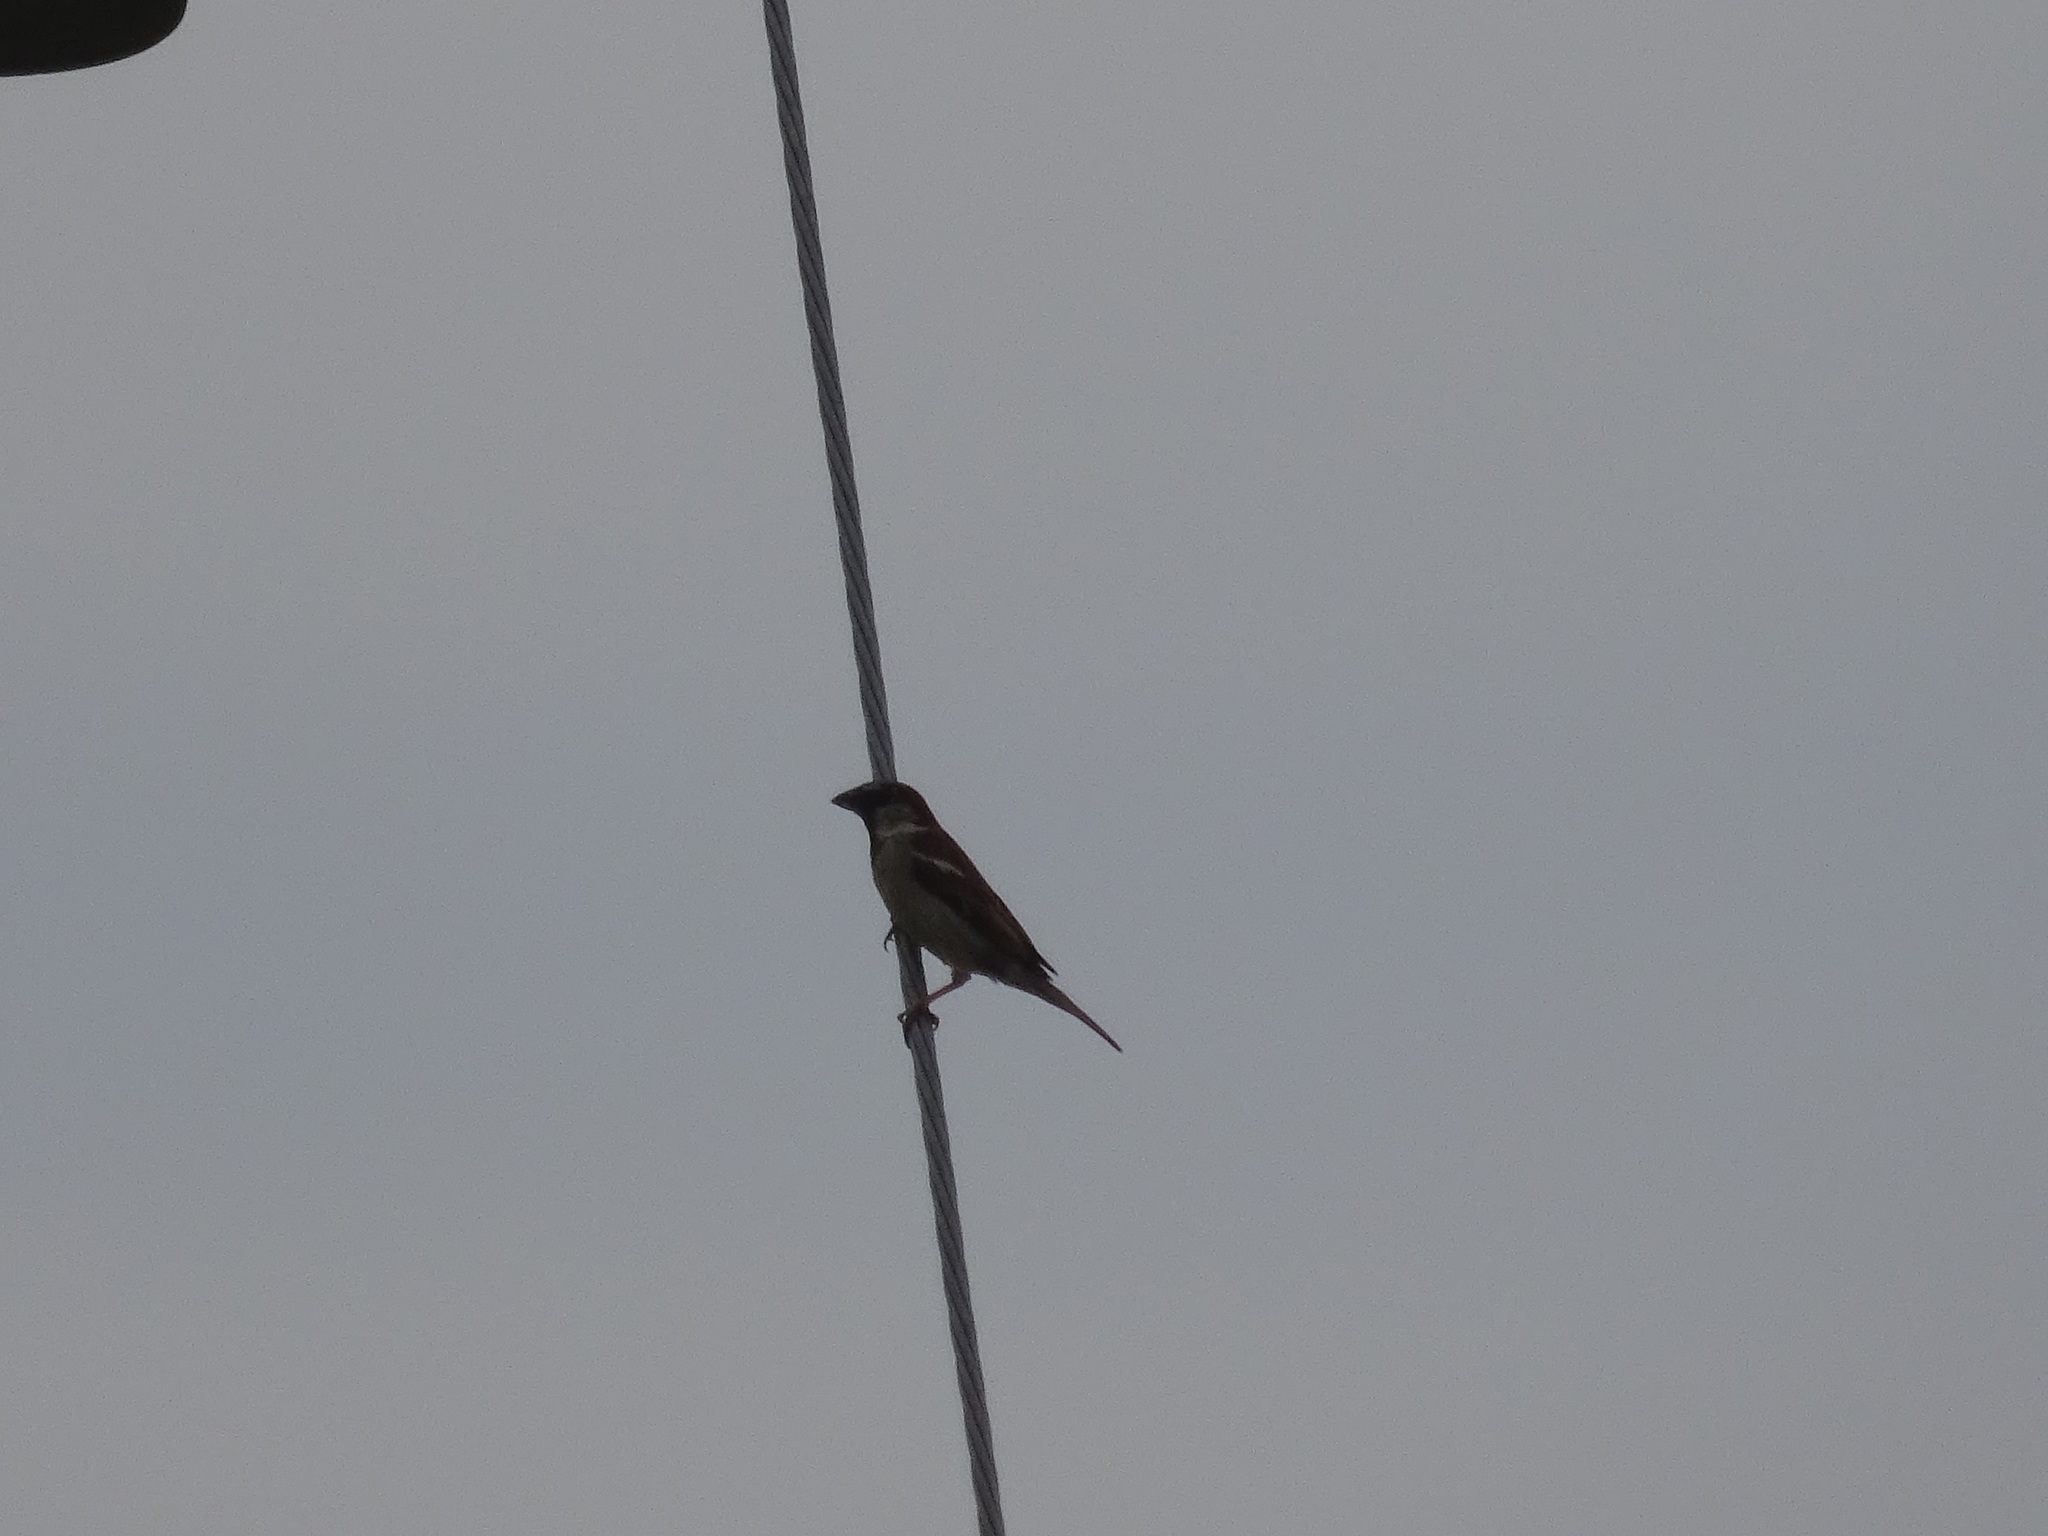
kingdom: Animalia
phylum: Chordata
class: Aves
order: Passeriformes
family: Passeridae
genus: Passer
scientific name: Passer domesticus
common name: House sparrow
